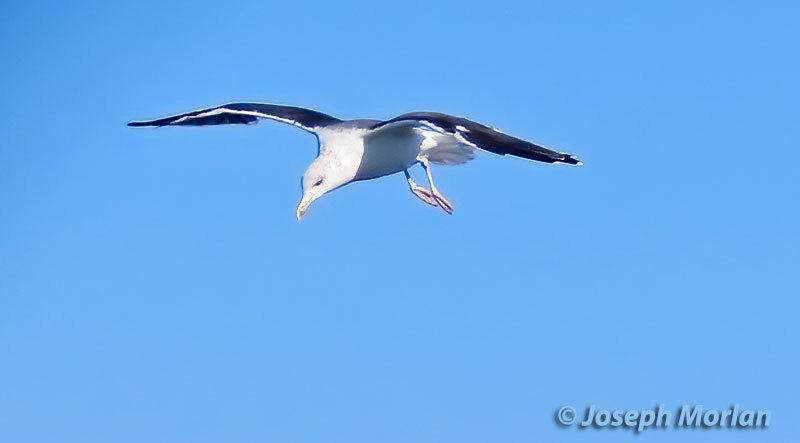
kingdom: Animalia
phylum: Chordata
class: Aves
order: Charadriiformes
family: Laridae
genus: Larus
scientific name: Larus marinus
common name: Great black-backed gull
